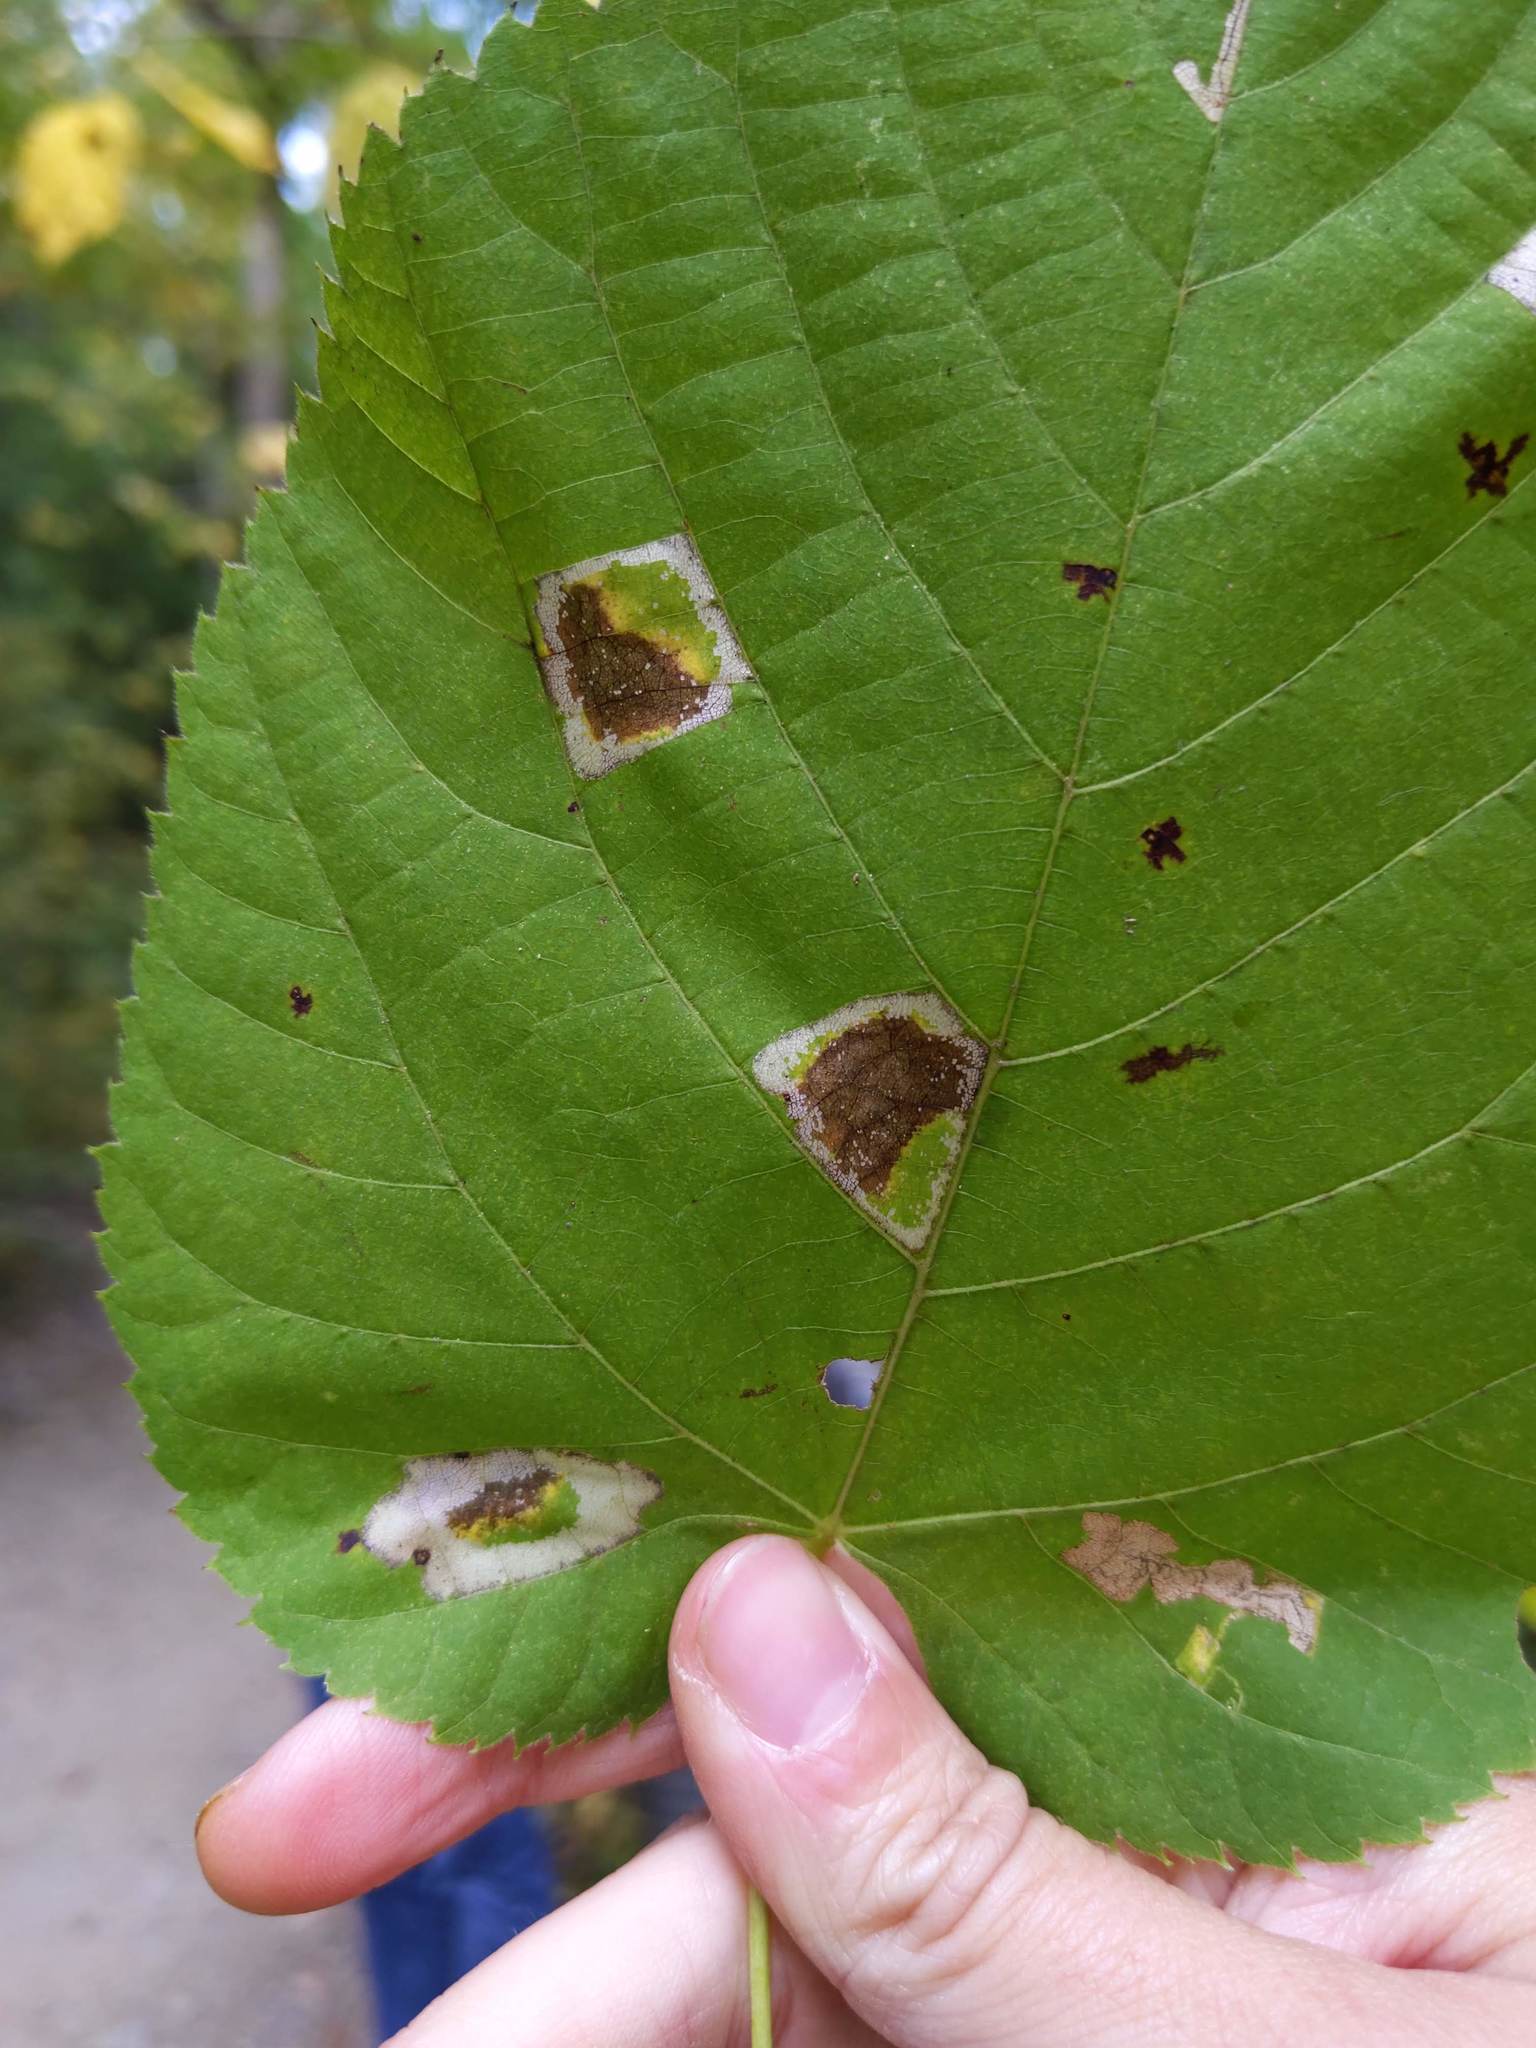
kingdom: Animalia
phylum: Arthropoda
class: Insecta
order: Lepidoptera
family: Gracillariidae
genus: Phyllonorycter
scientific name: Phyllonorycter lucetiella
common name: Basswood miner moth
